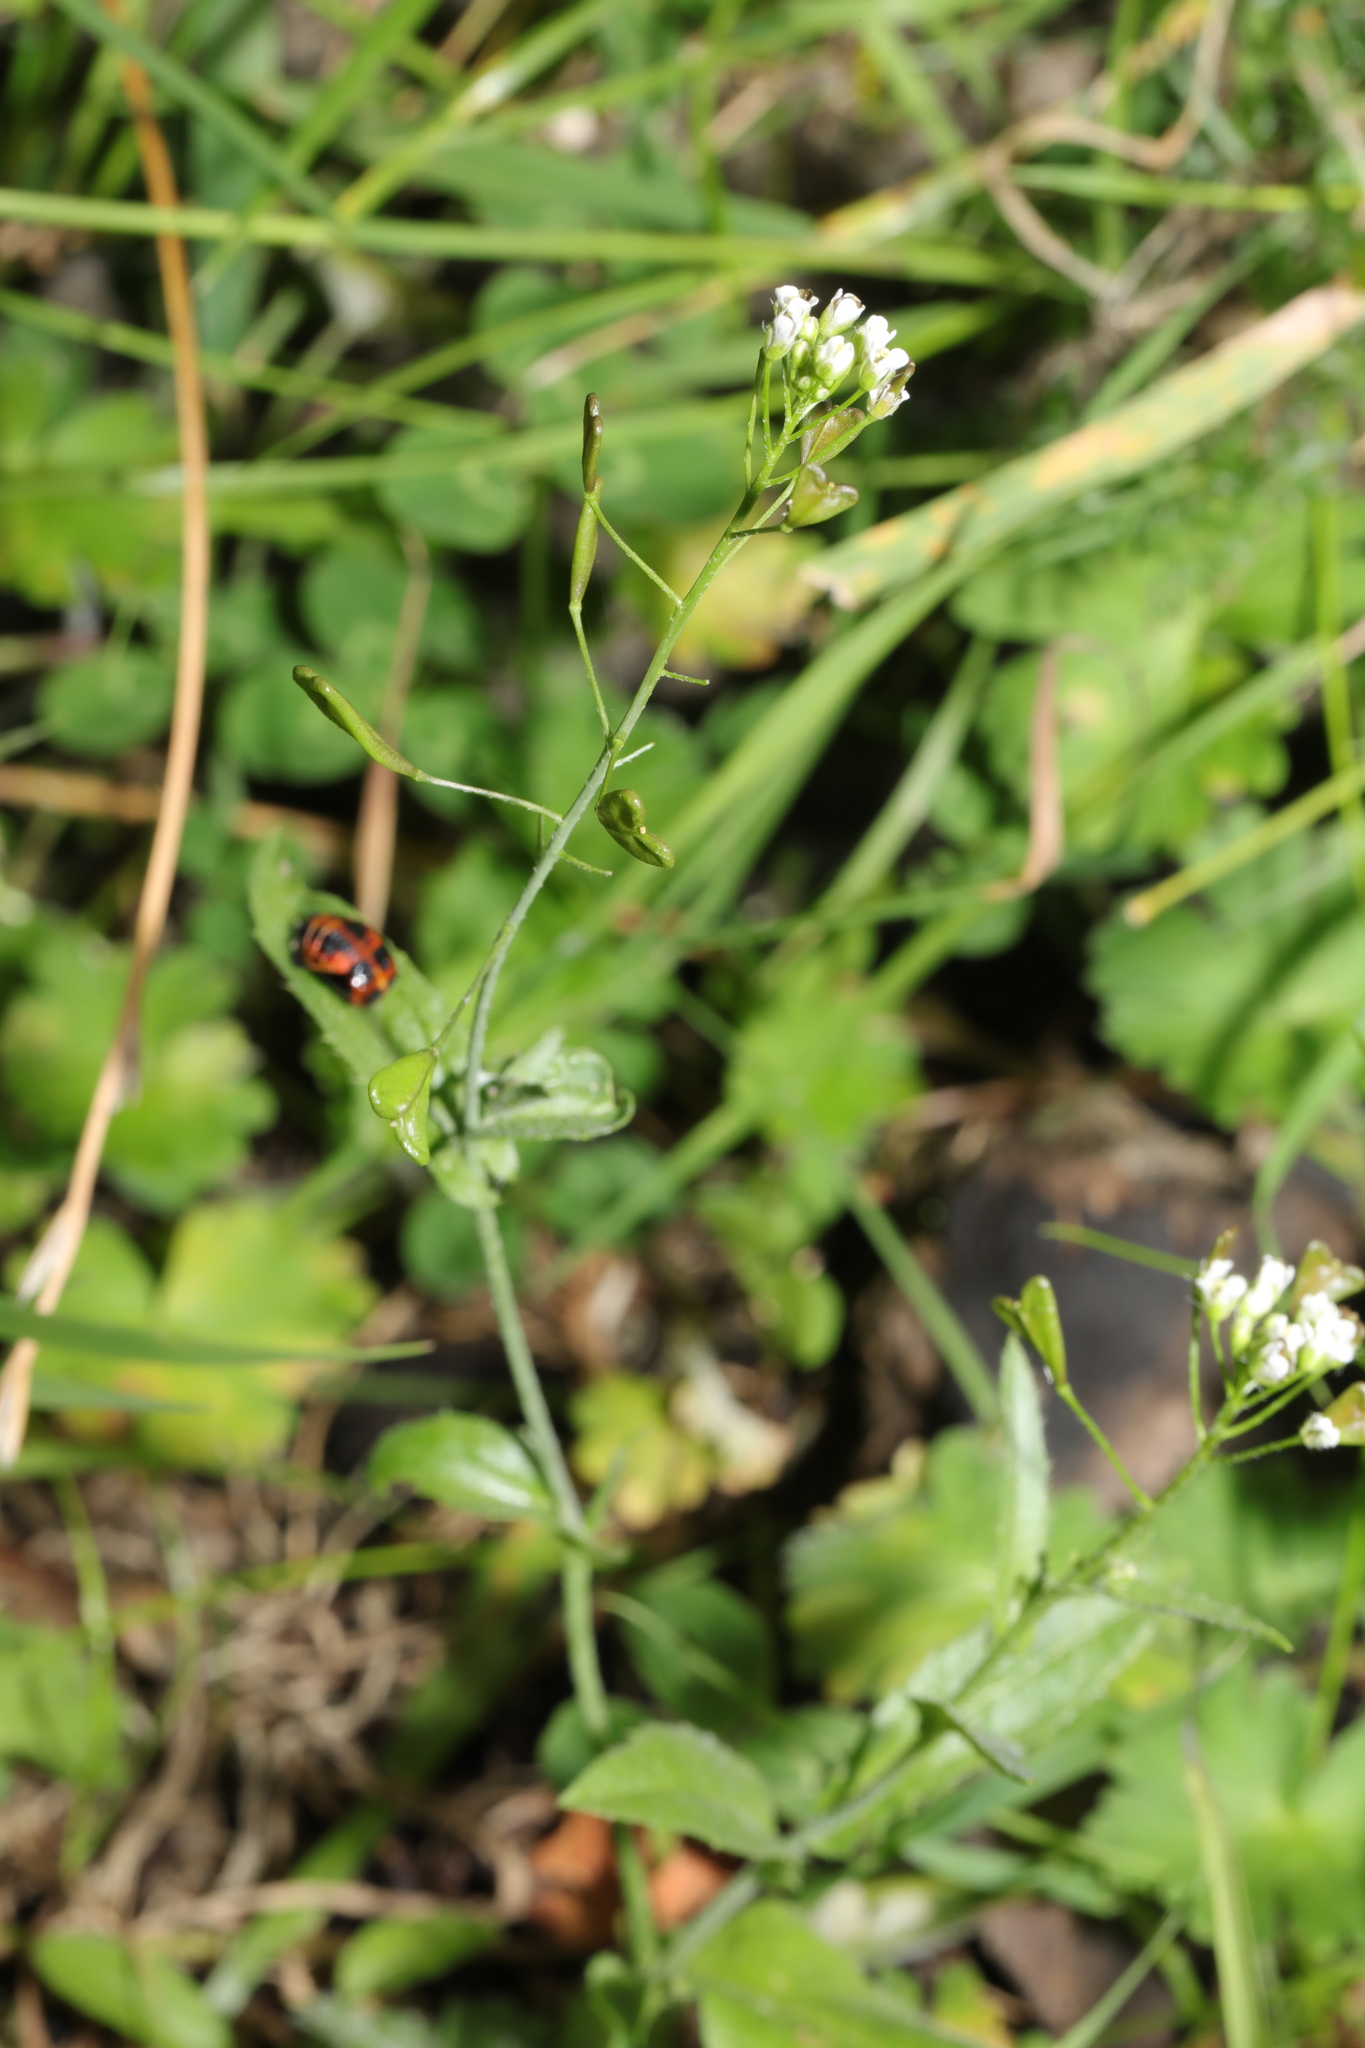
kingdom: Plantae
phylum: Tracheophyta
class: Magnoliopsida
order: Brassicales
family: Brassicaceae
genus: Capsella
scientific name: Capsella bursa-pastoris
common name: Shepherd's purse
